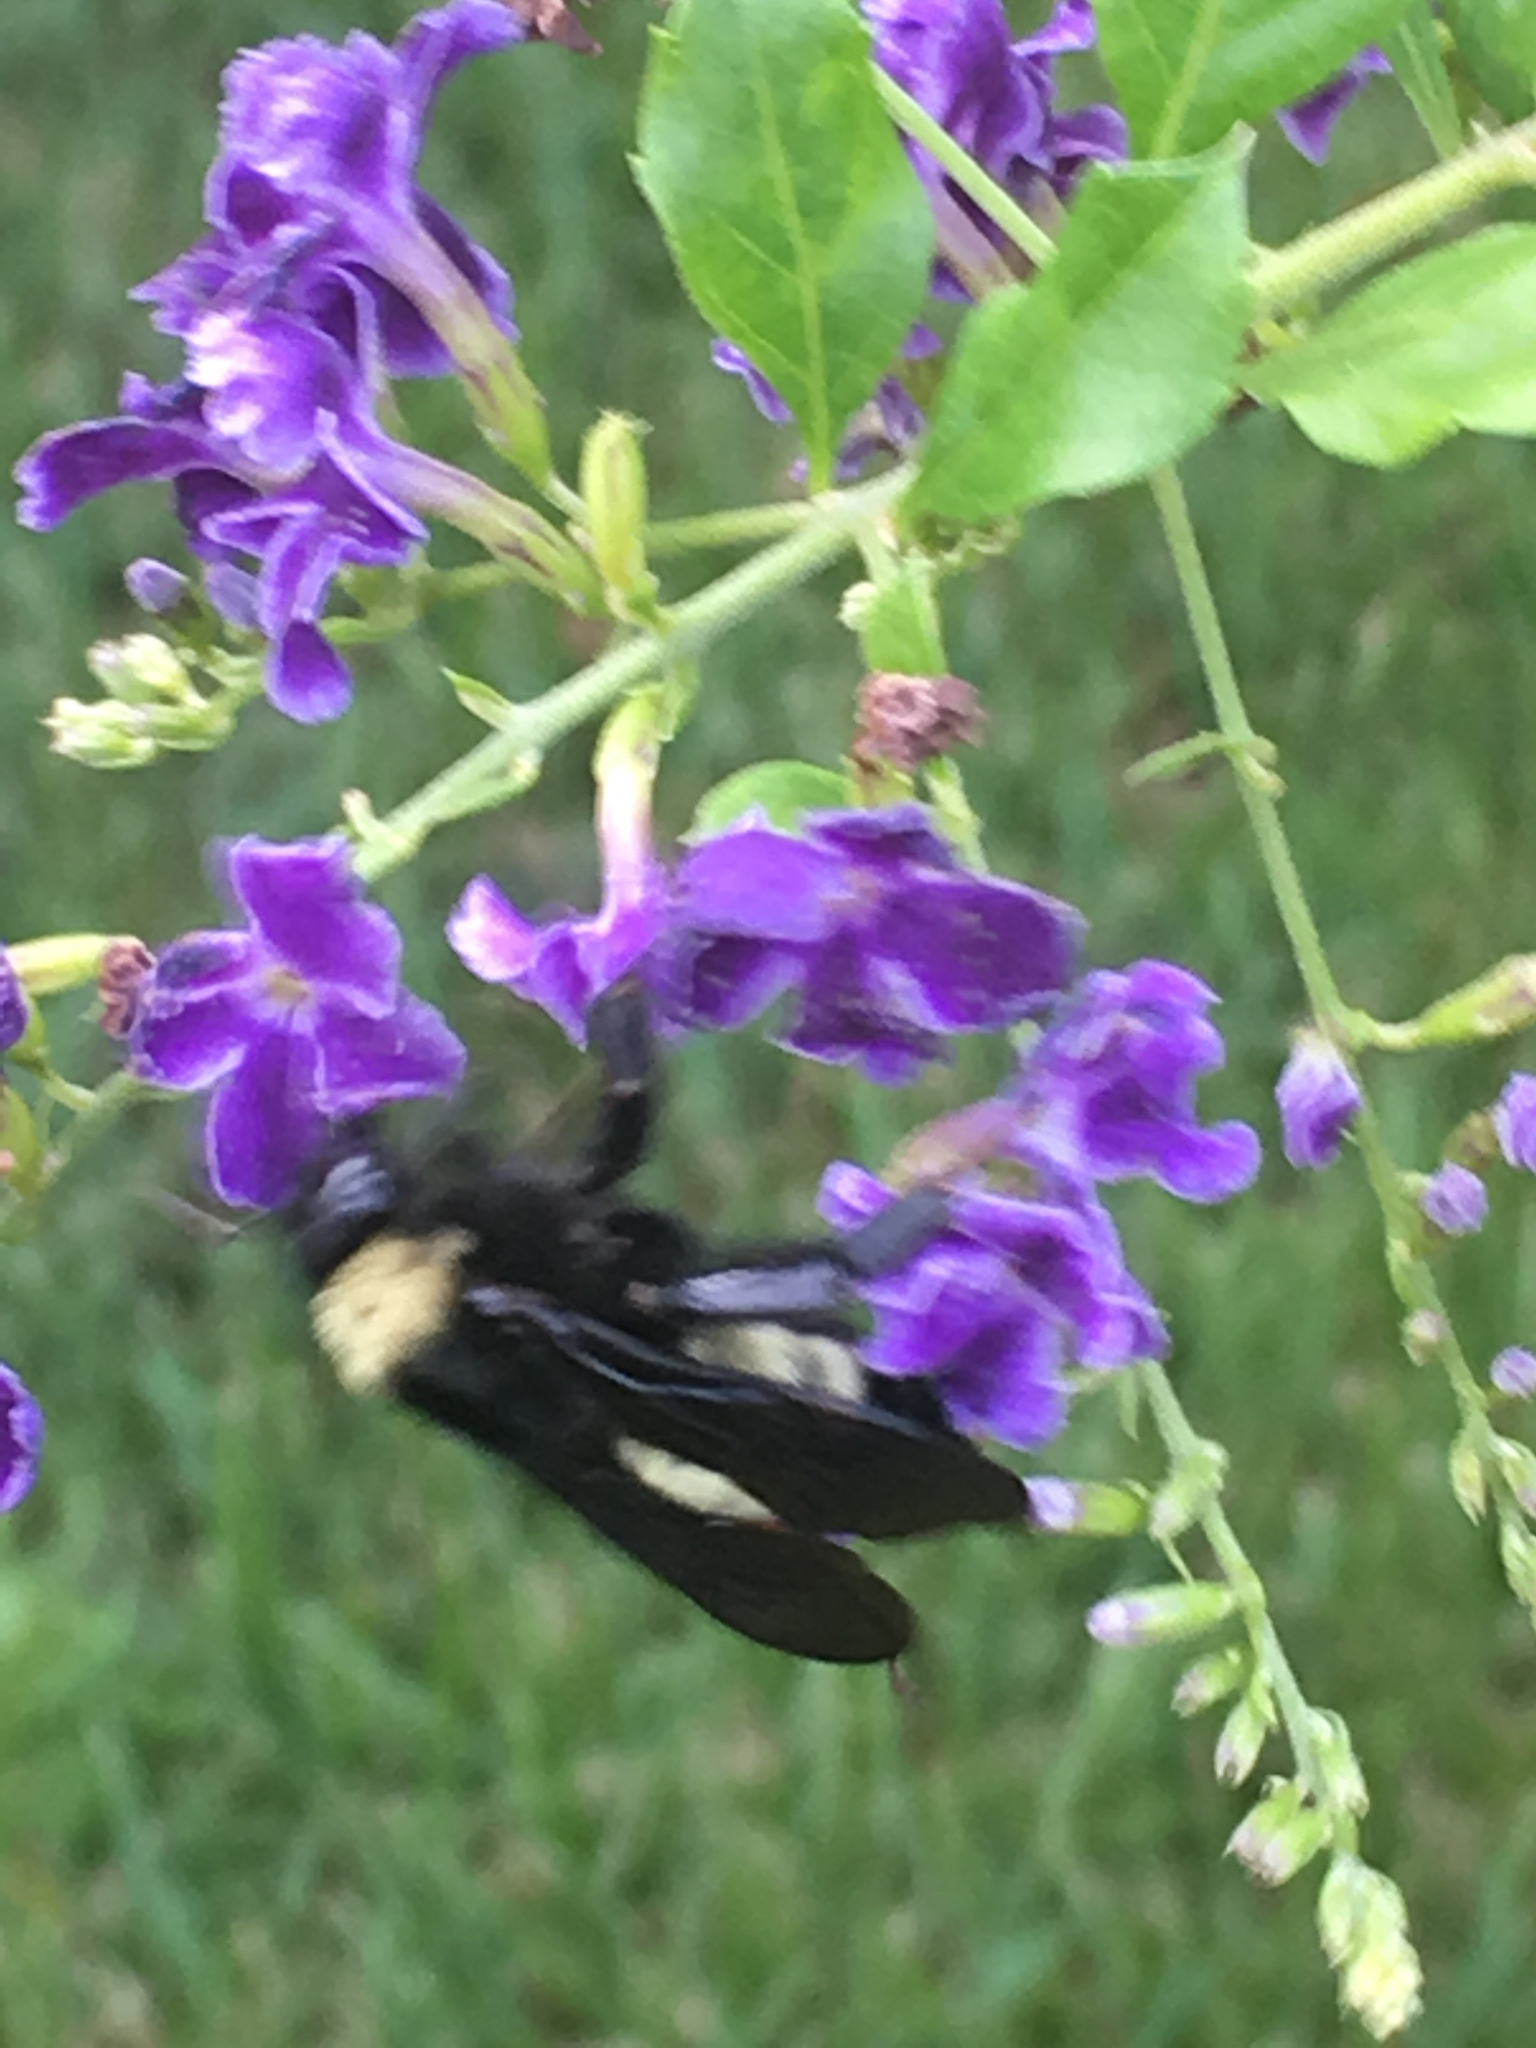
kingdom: Animalia
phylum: Arthropoda
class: Insecta
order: Hymenoptera
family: Apidae
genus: Bombus
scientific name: Bombus pensylvanicus
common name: Bumble bee
